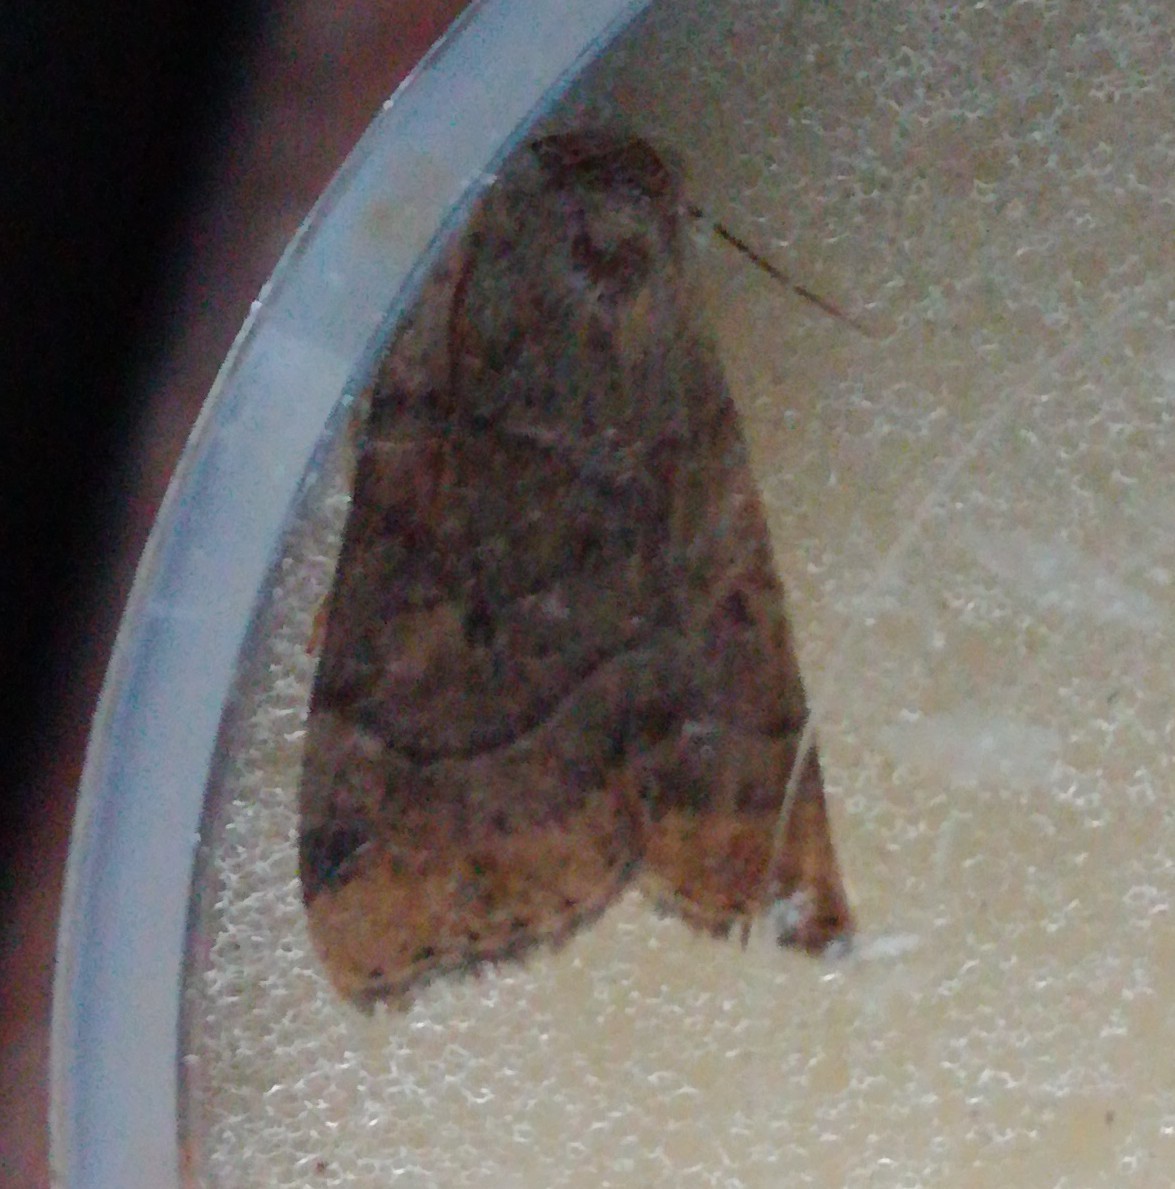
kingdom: Animalia
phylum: Arthropoda
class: Insecta
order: Lepidoptera
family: Noctuidae
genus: Cosmia
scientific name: Cosmia trapezina
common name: Dun-bar
